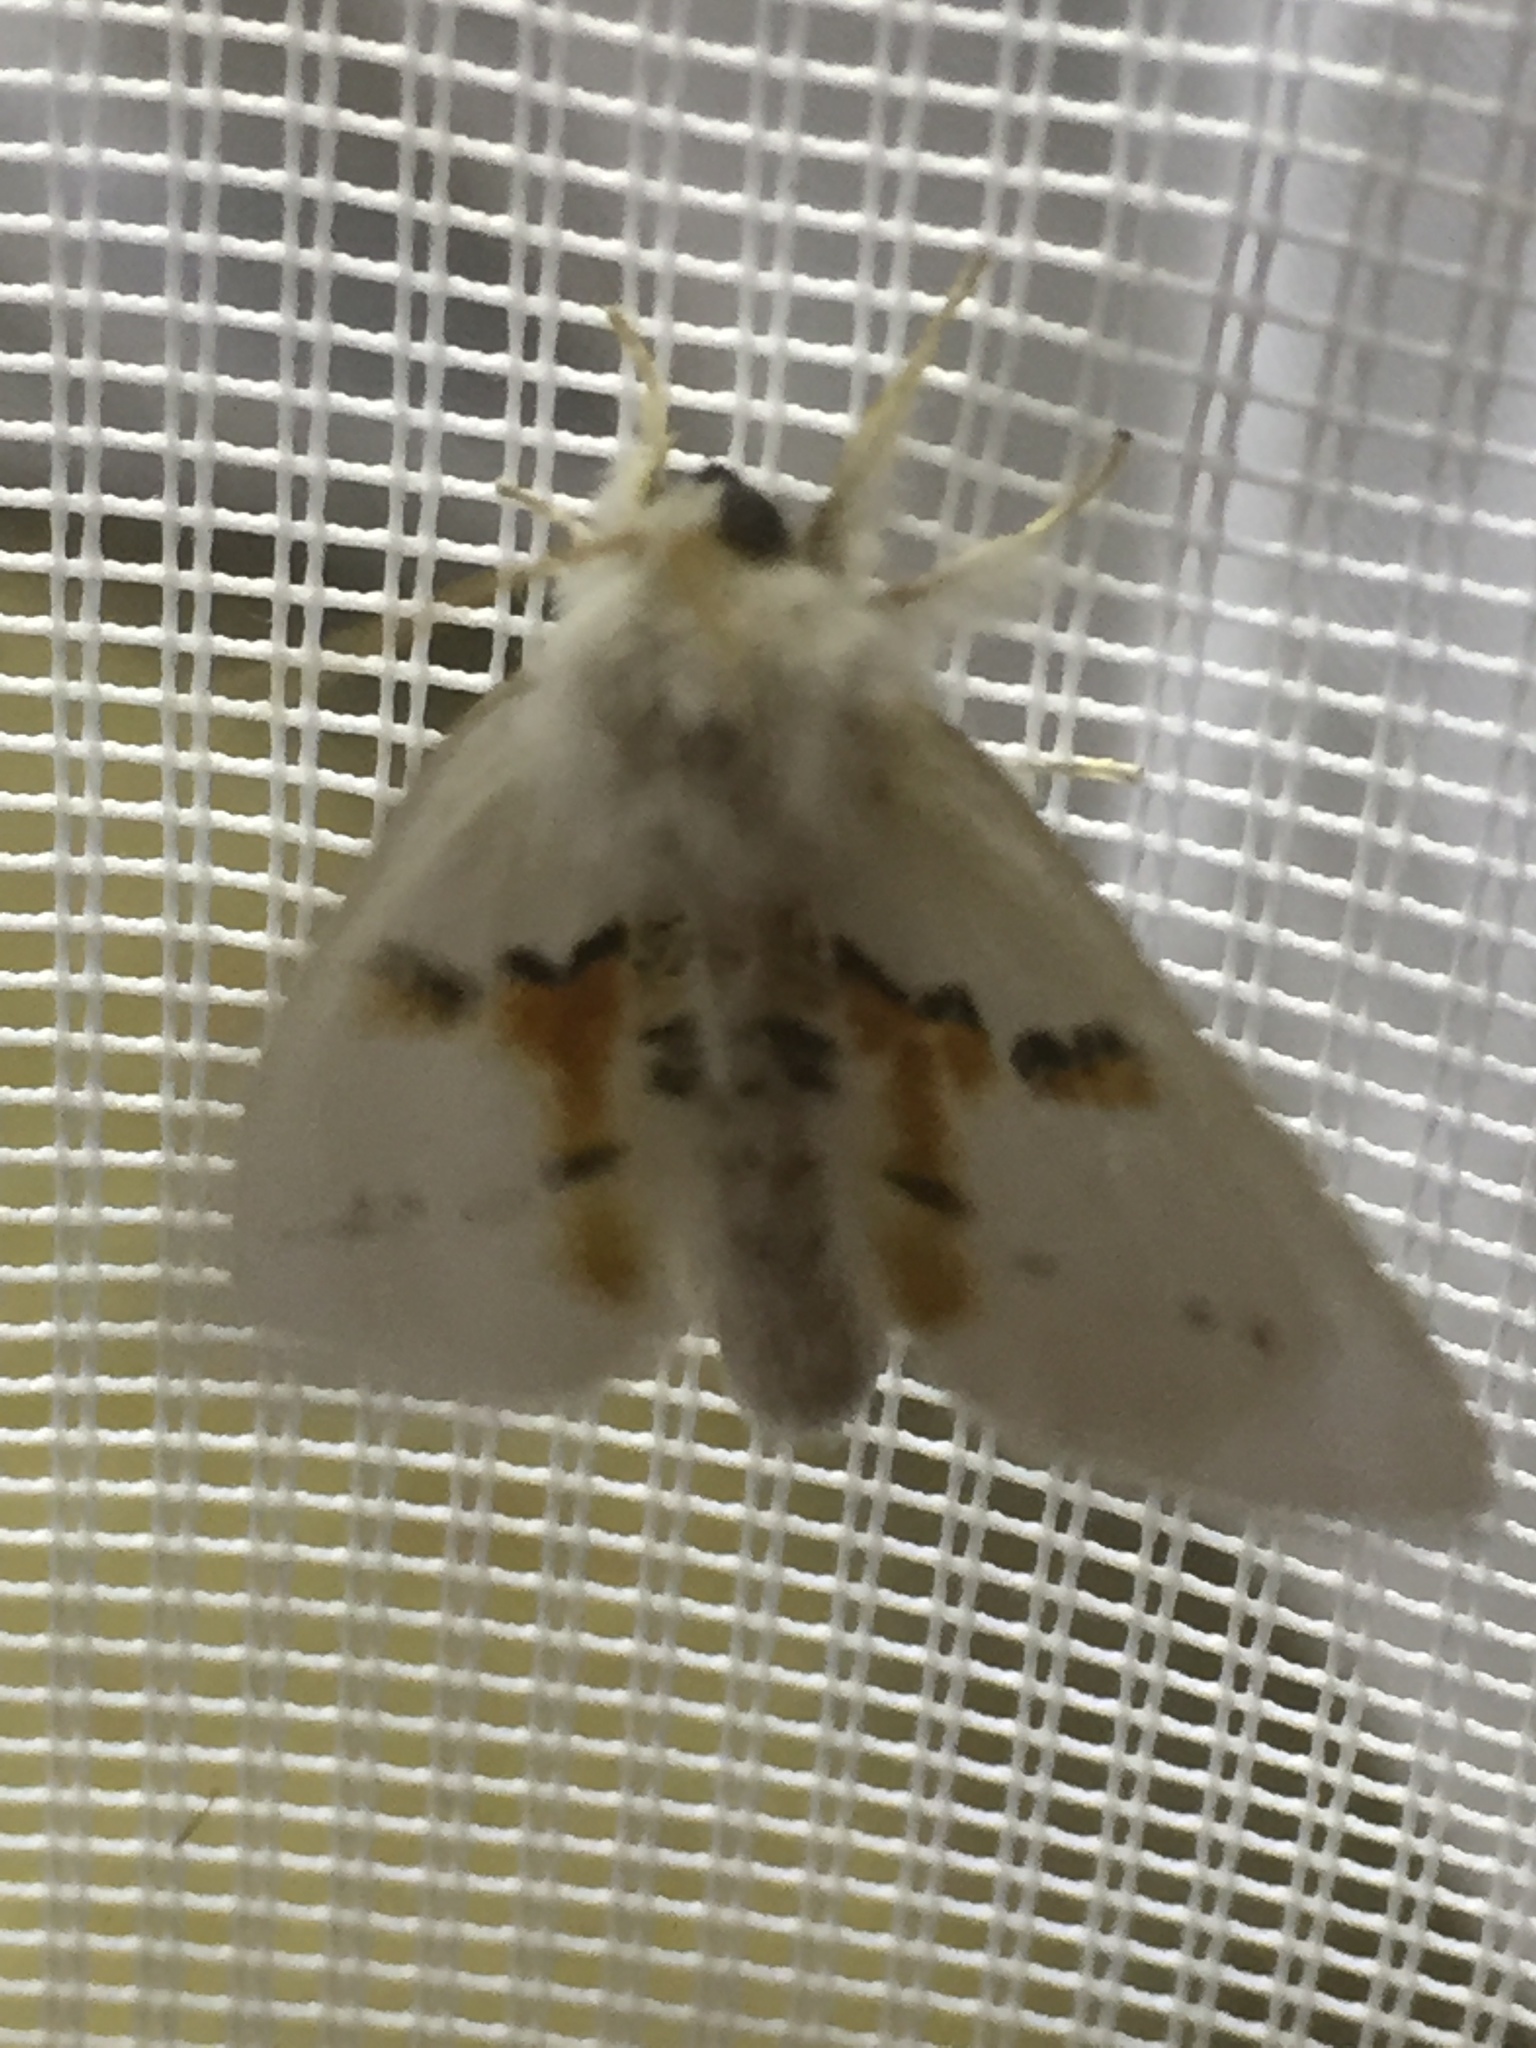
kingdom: Animalia
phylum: Arthropoda
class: Insecta
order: Lepidoptera
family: Notodontidae
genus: Leucodonta
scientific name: Leucodonta bicoloria
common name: White prominent
